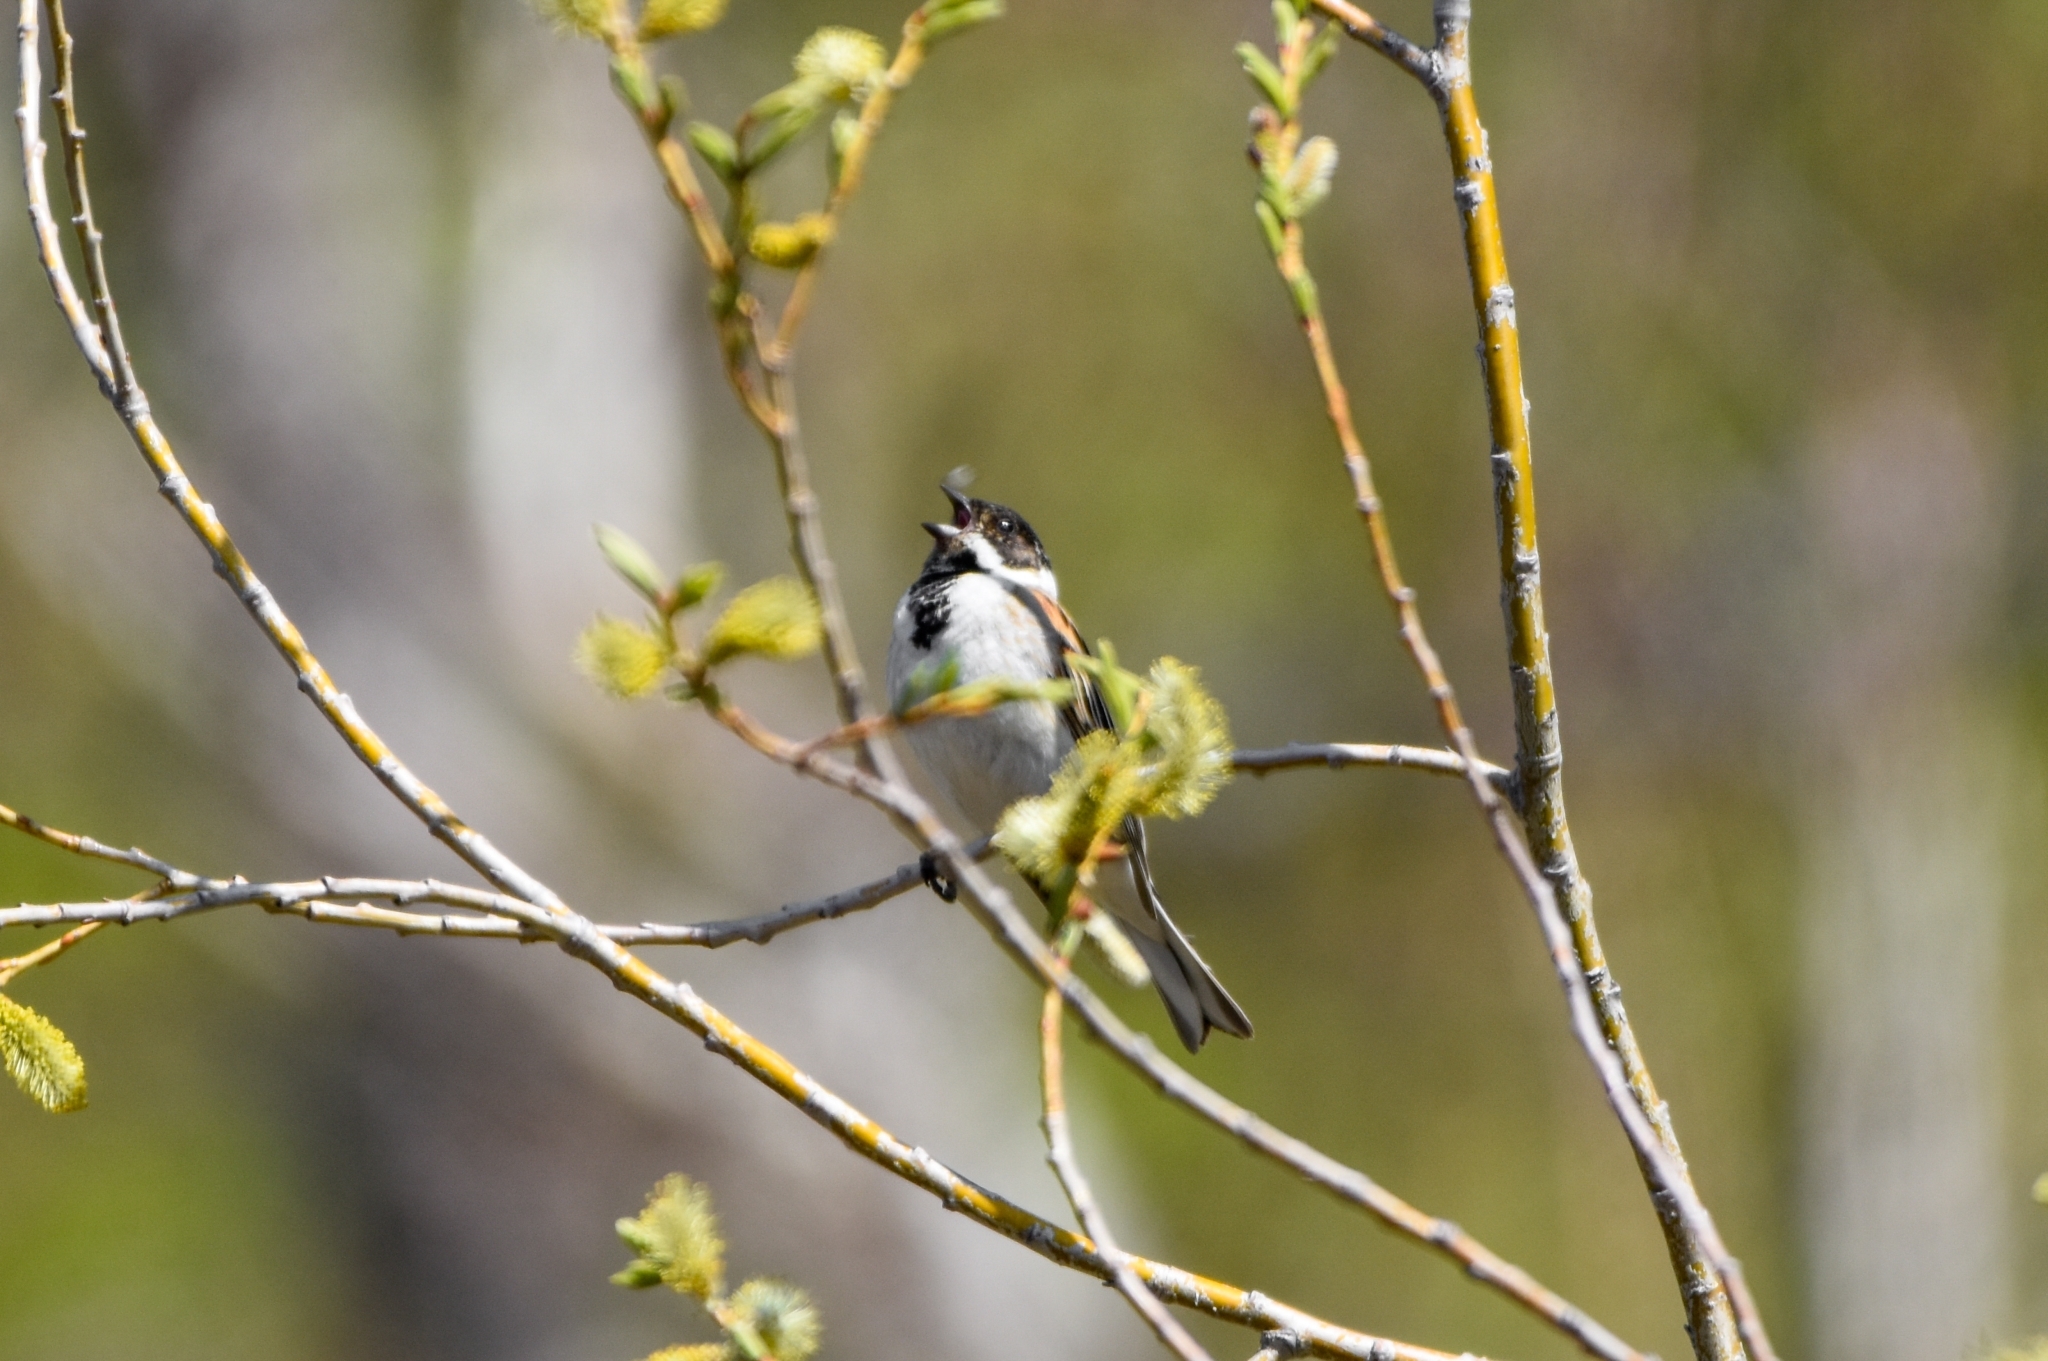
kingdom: Animalia
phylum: Chordata
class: Aves
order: Passeriformes
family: Emberizidae
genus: Emberiza
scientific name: Emberiza schoeniclus
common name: Reed bunting
